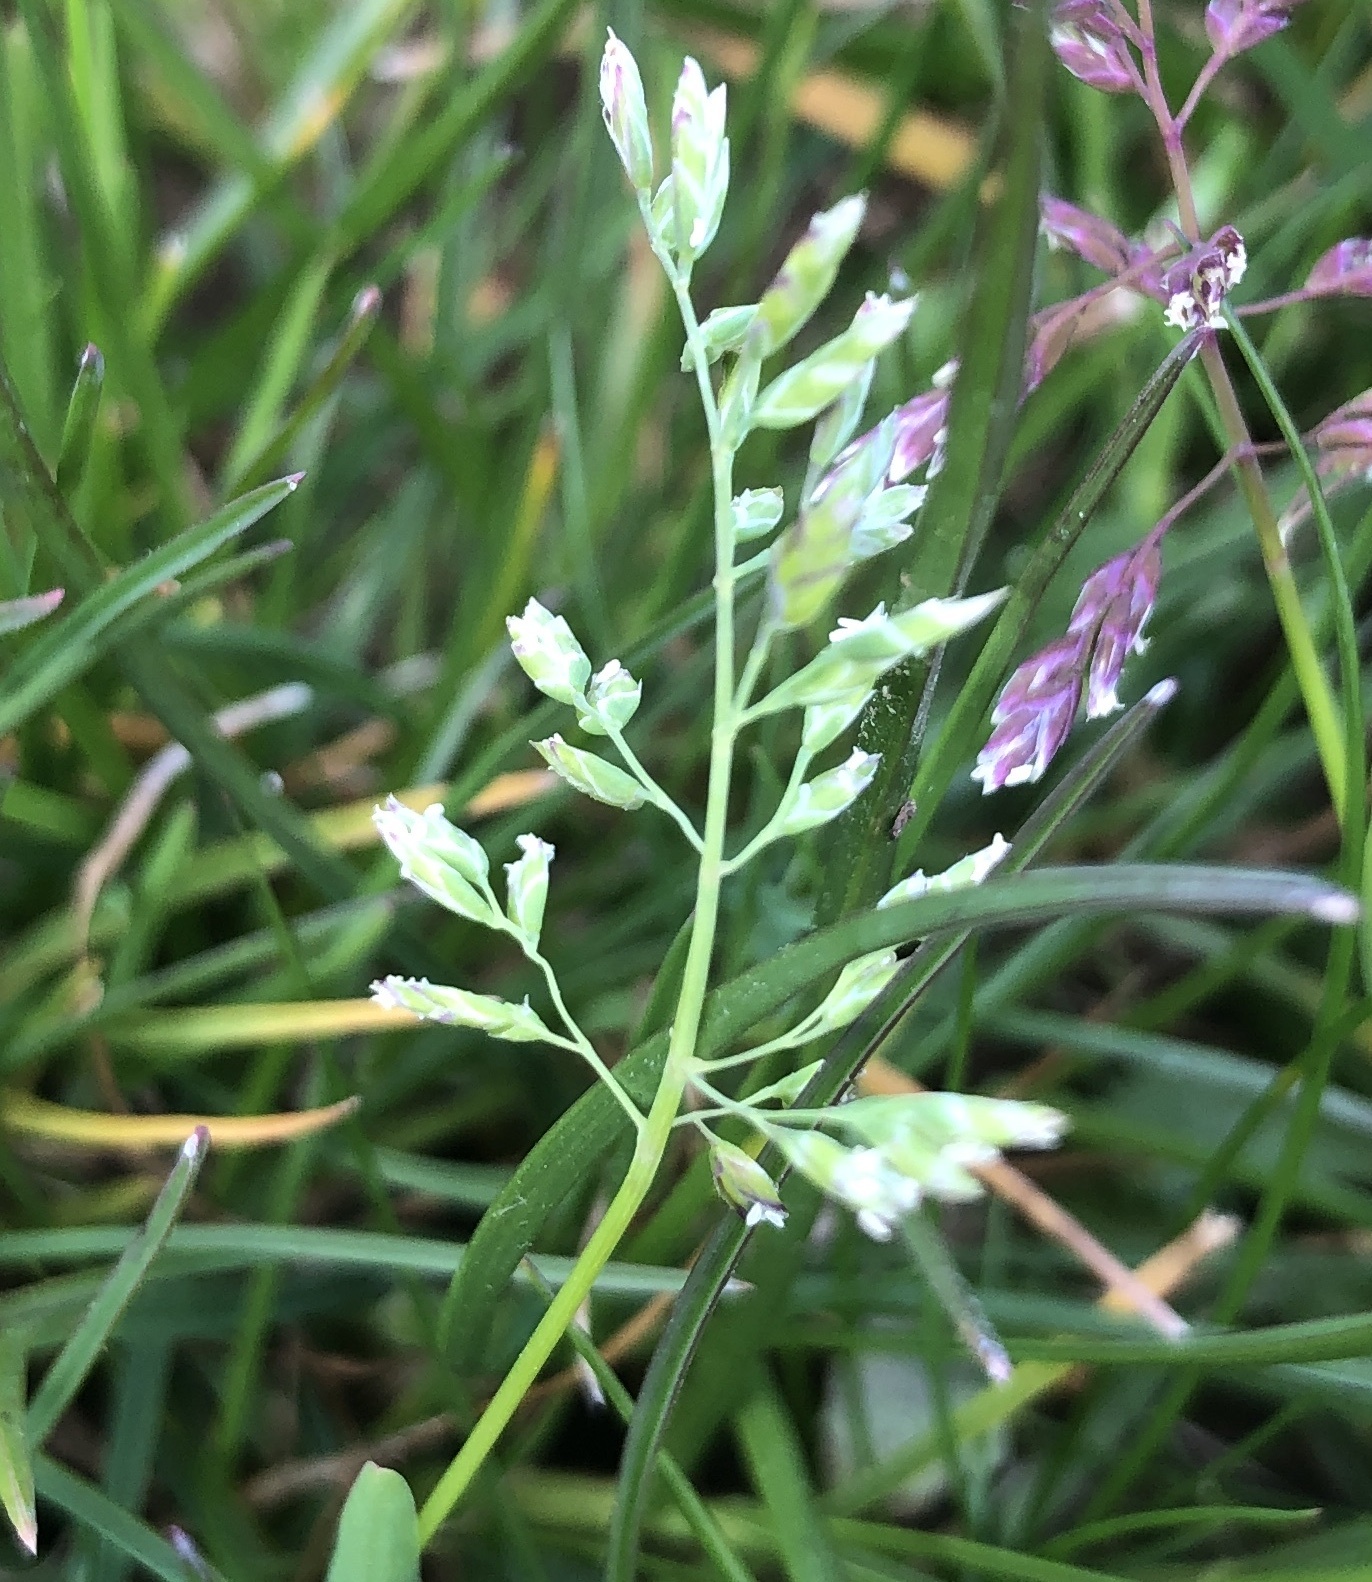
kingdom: Plantae
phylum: Tracheophyta
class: Liliopsida
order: Poales
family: Poaceae
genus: Poa
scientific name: Poa annua
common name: Annual bluegrass
